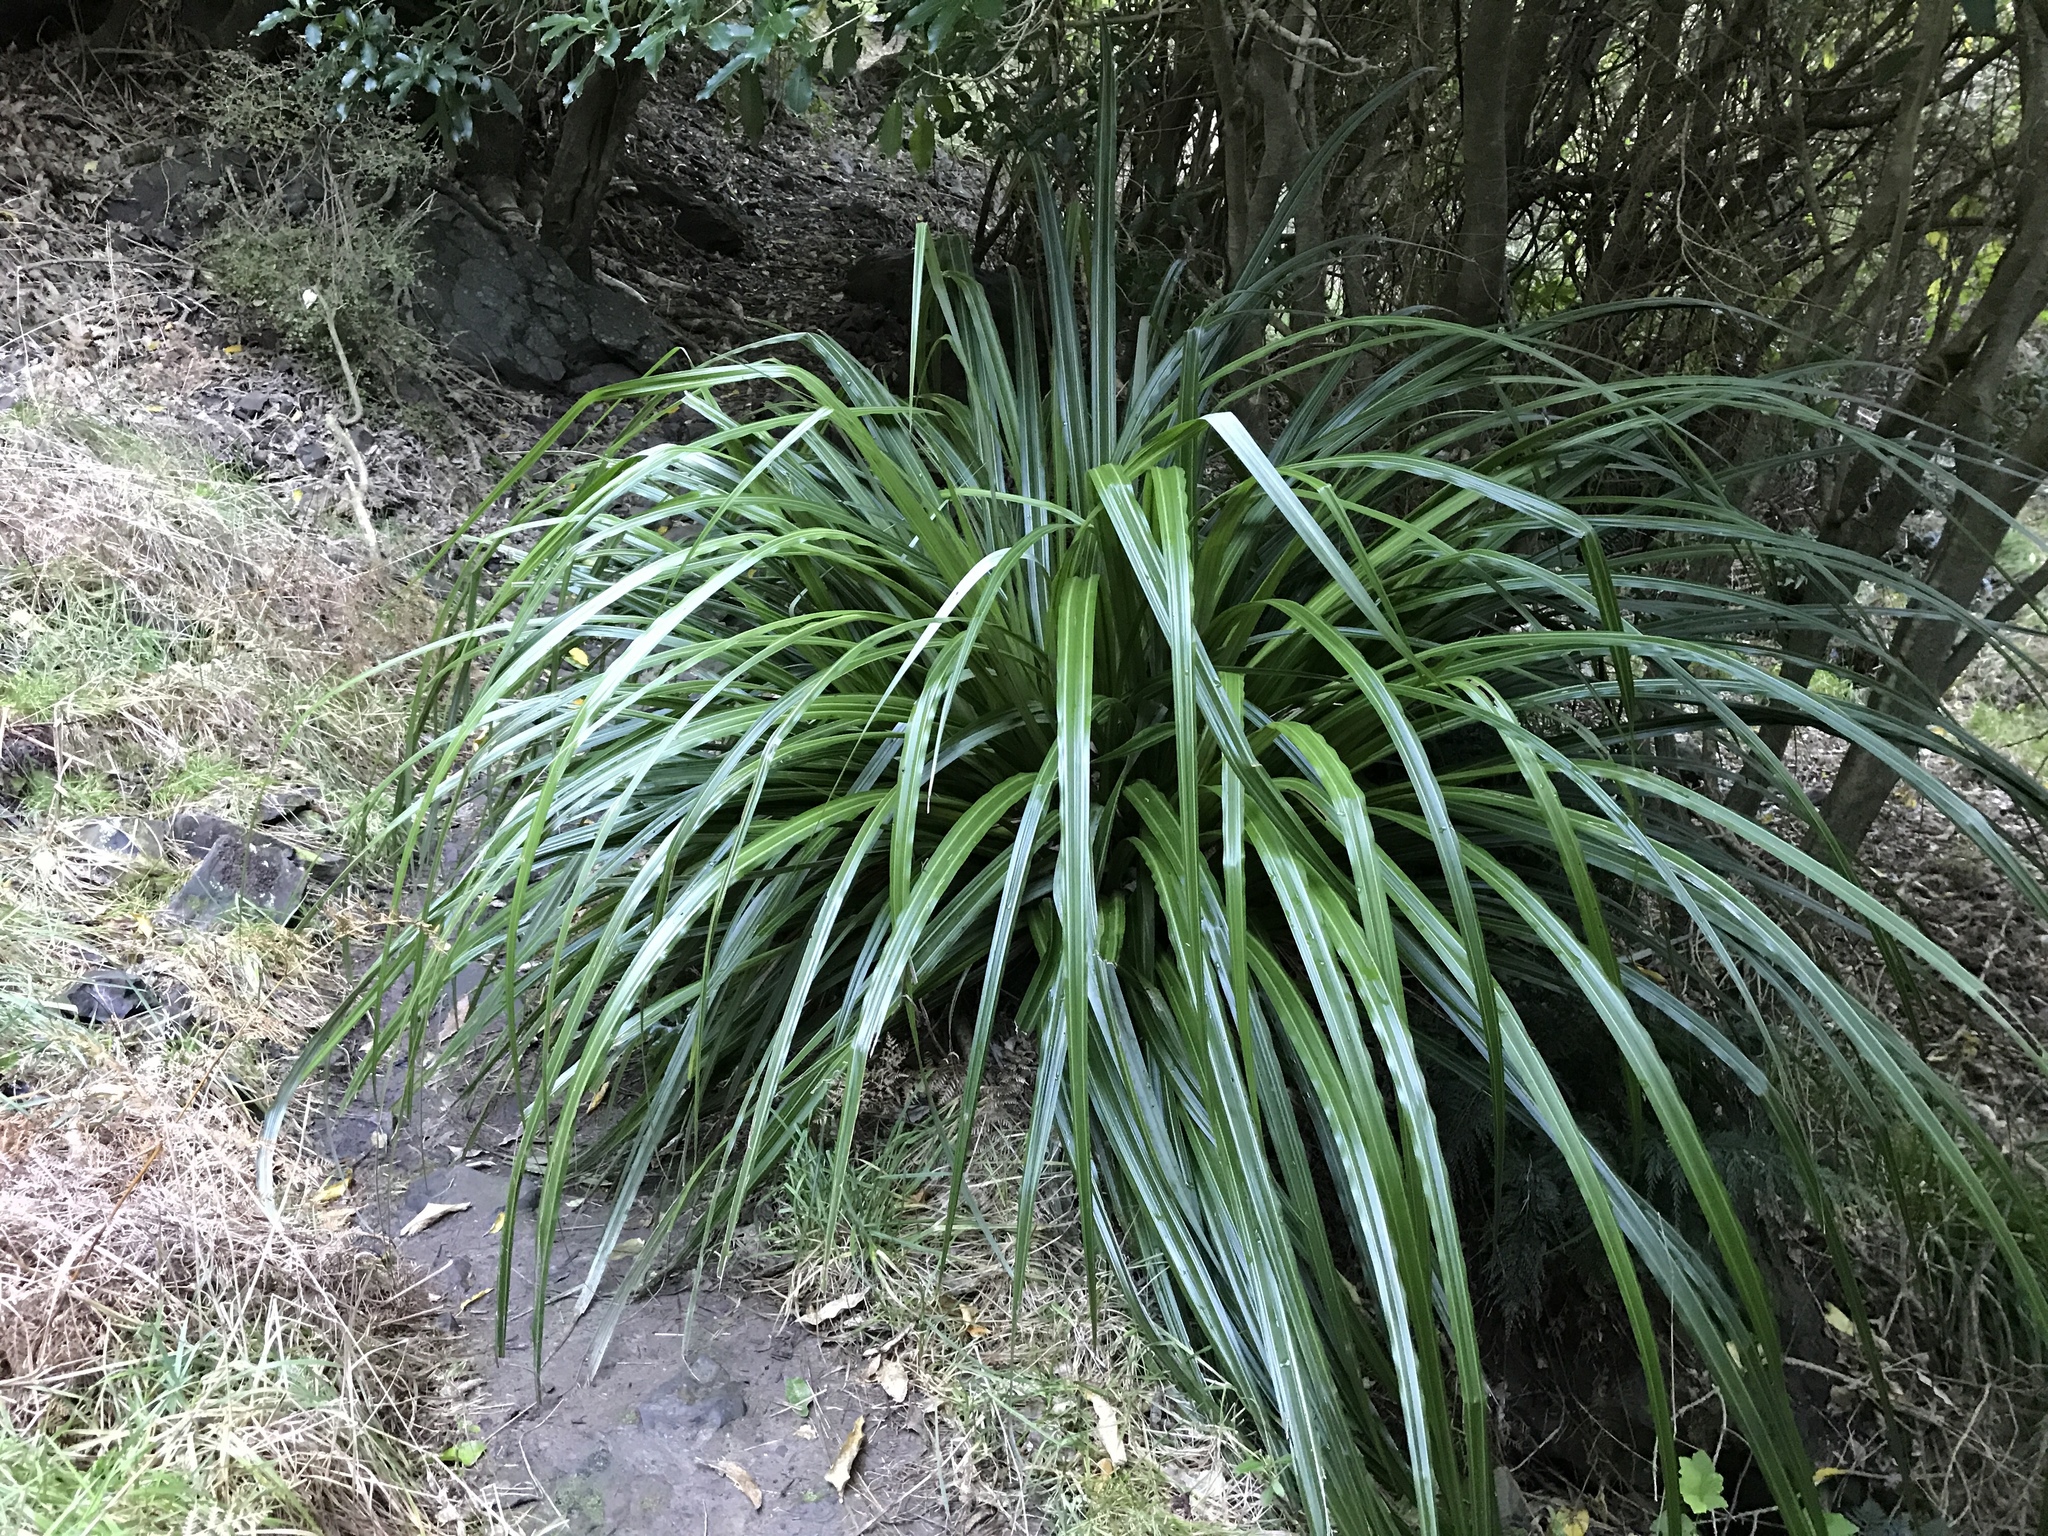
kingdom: Plantae
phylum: Tracheophyta
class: Liliopsida
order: Asparagales
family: Asteliaceae
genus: Astelia
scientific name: Astelia fragrans
